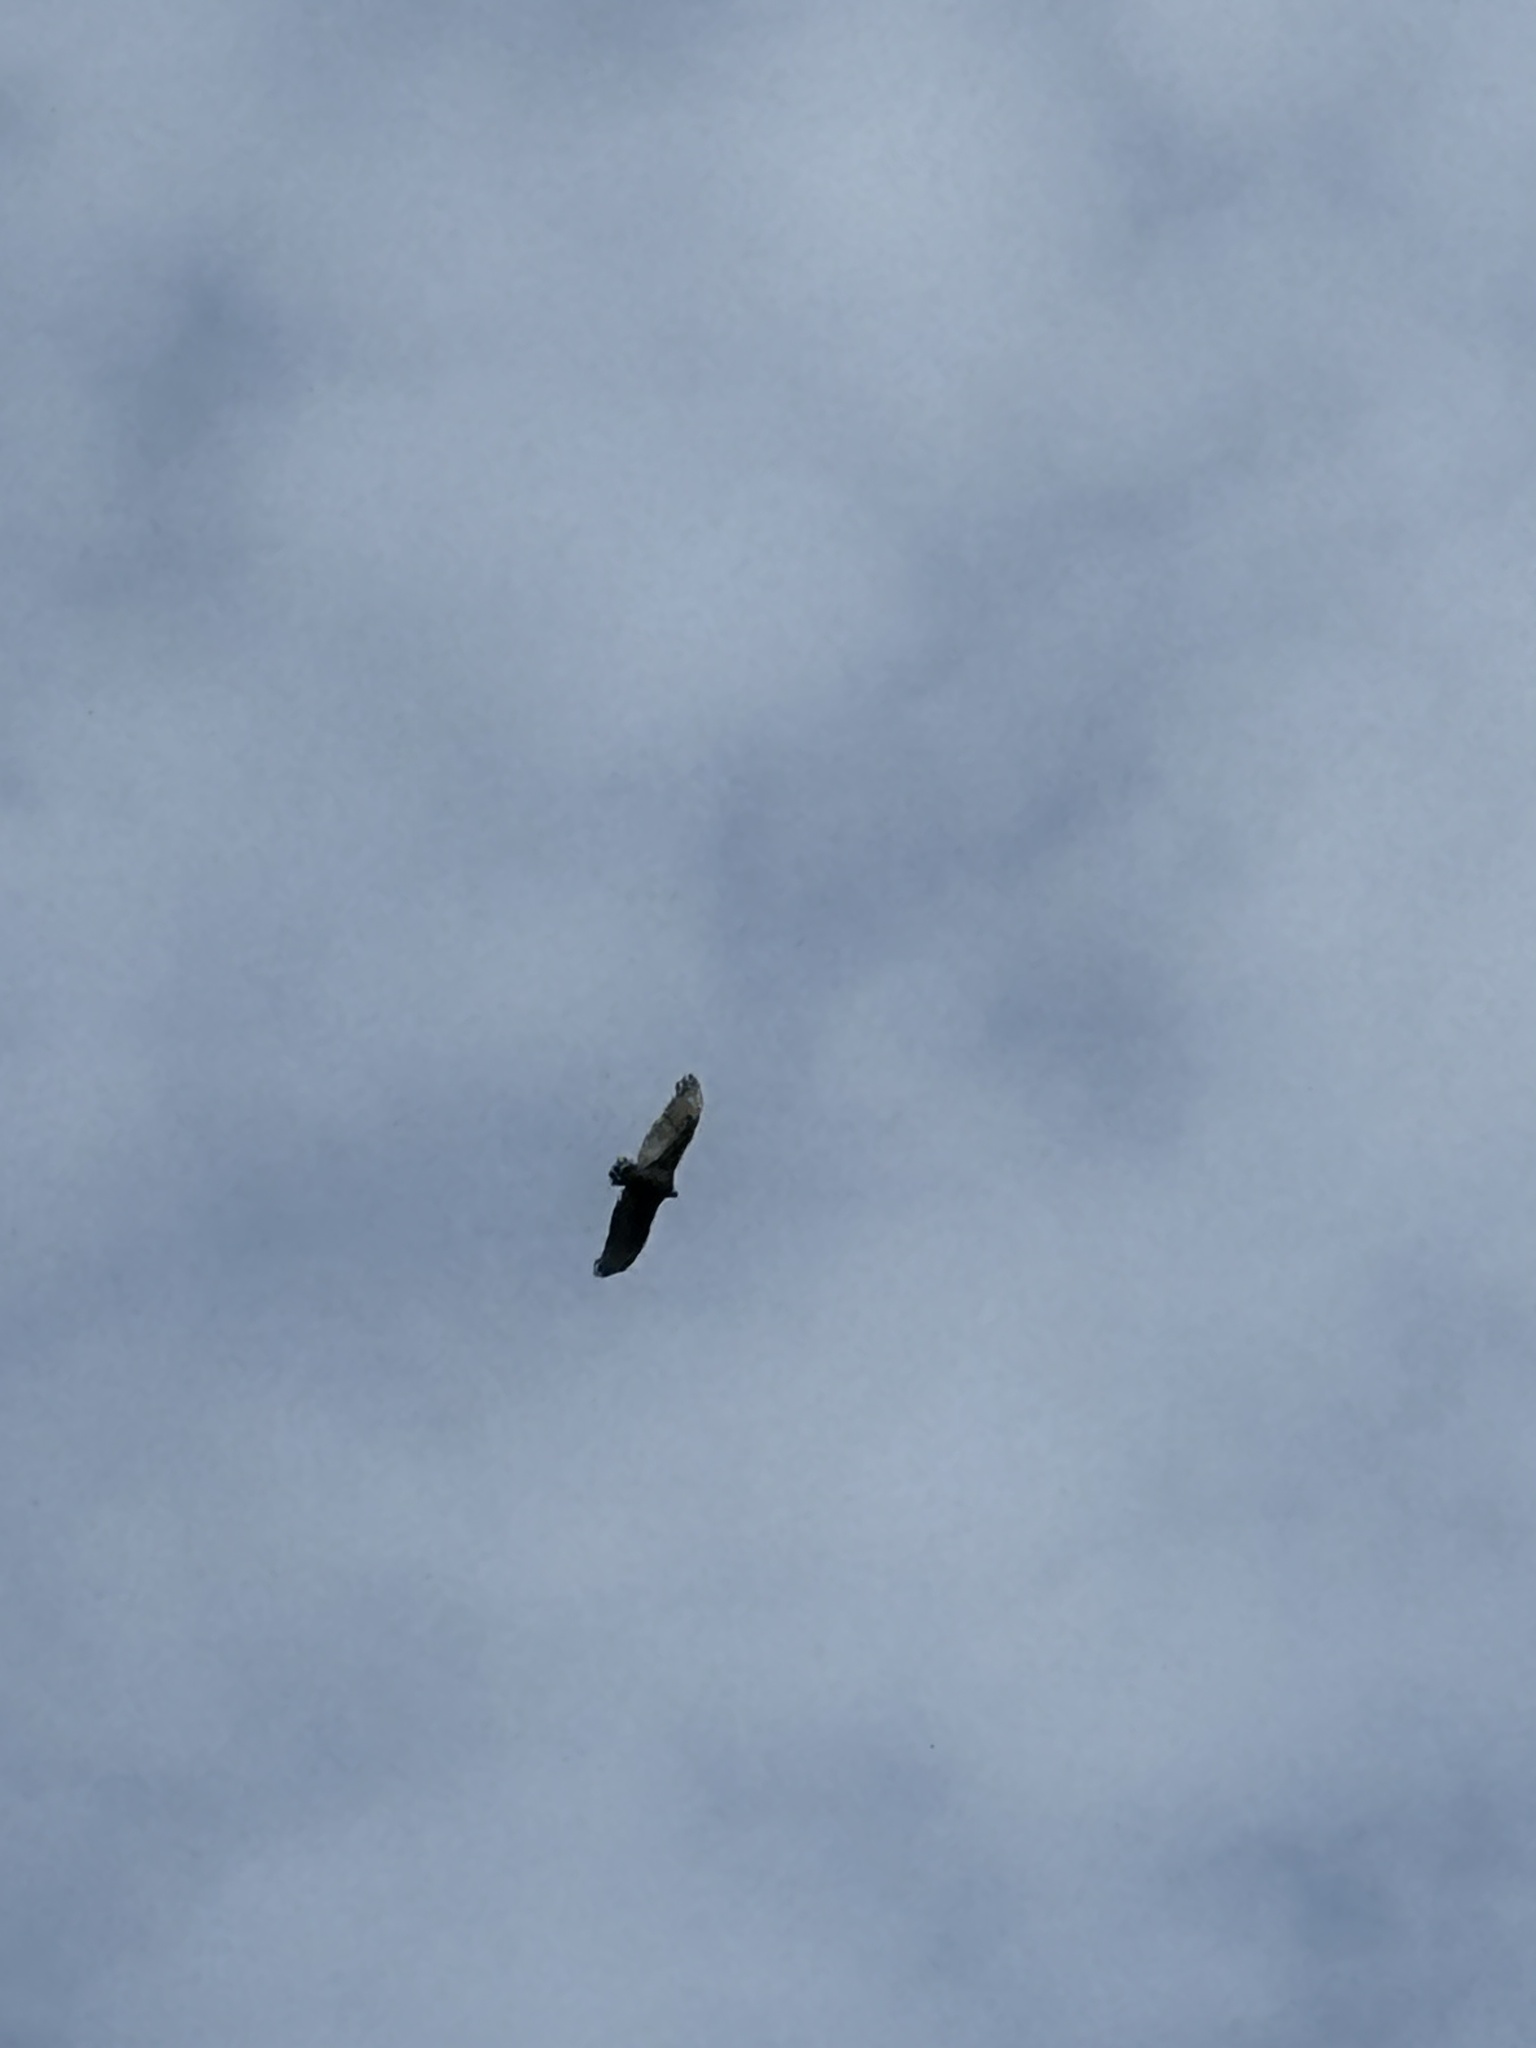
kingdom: Animalia
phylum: Chordata
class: Aves
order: Accipitriformes
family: Cathartidae
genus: Cathartes
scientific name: Cathartes aura
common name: Turkey vulture
